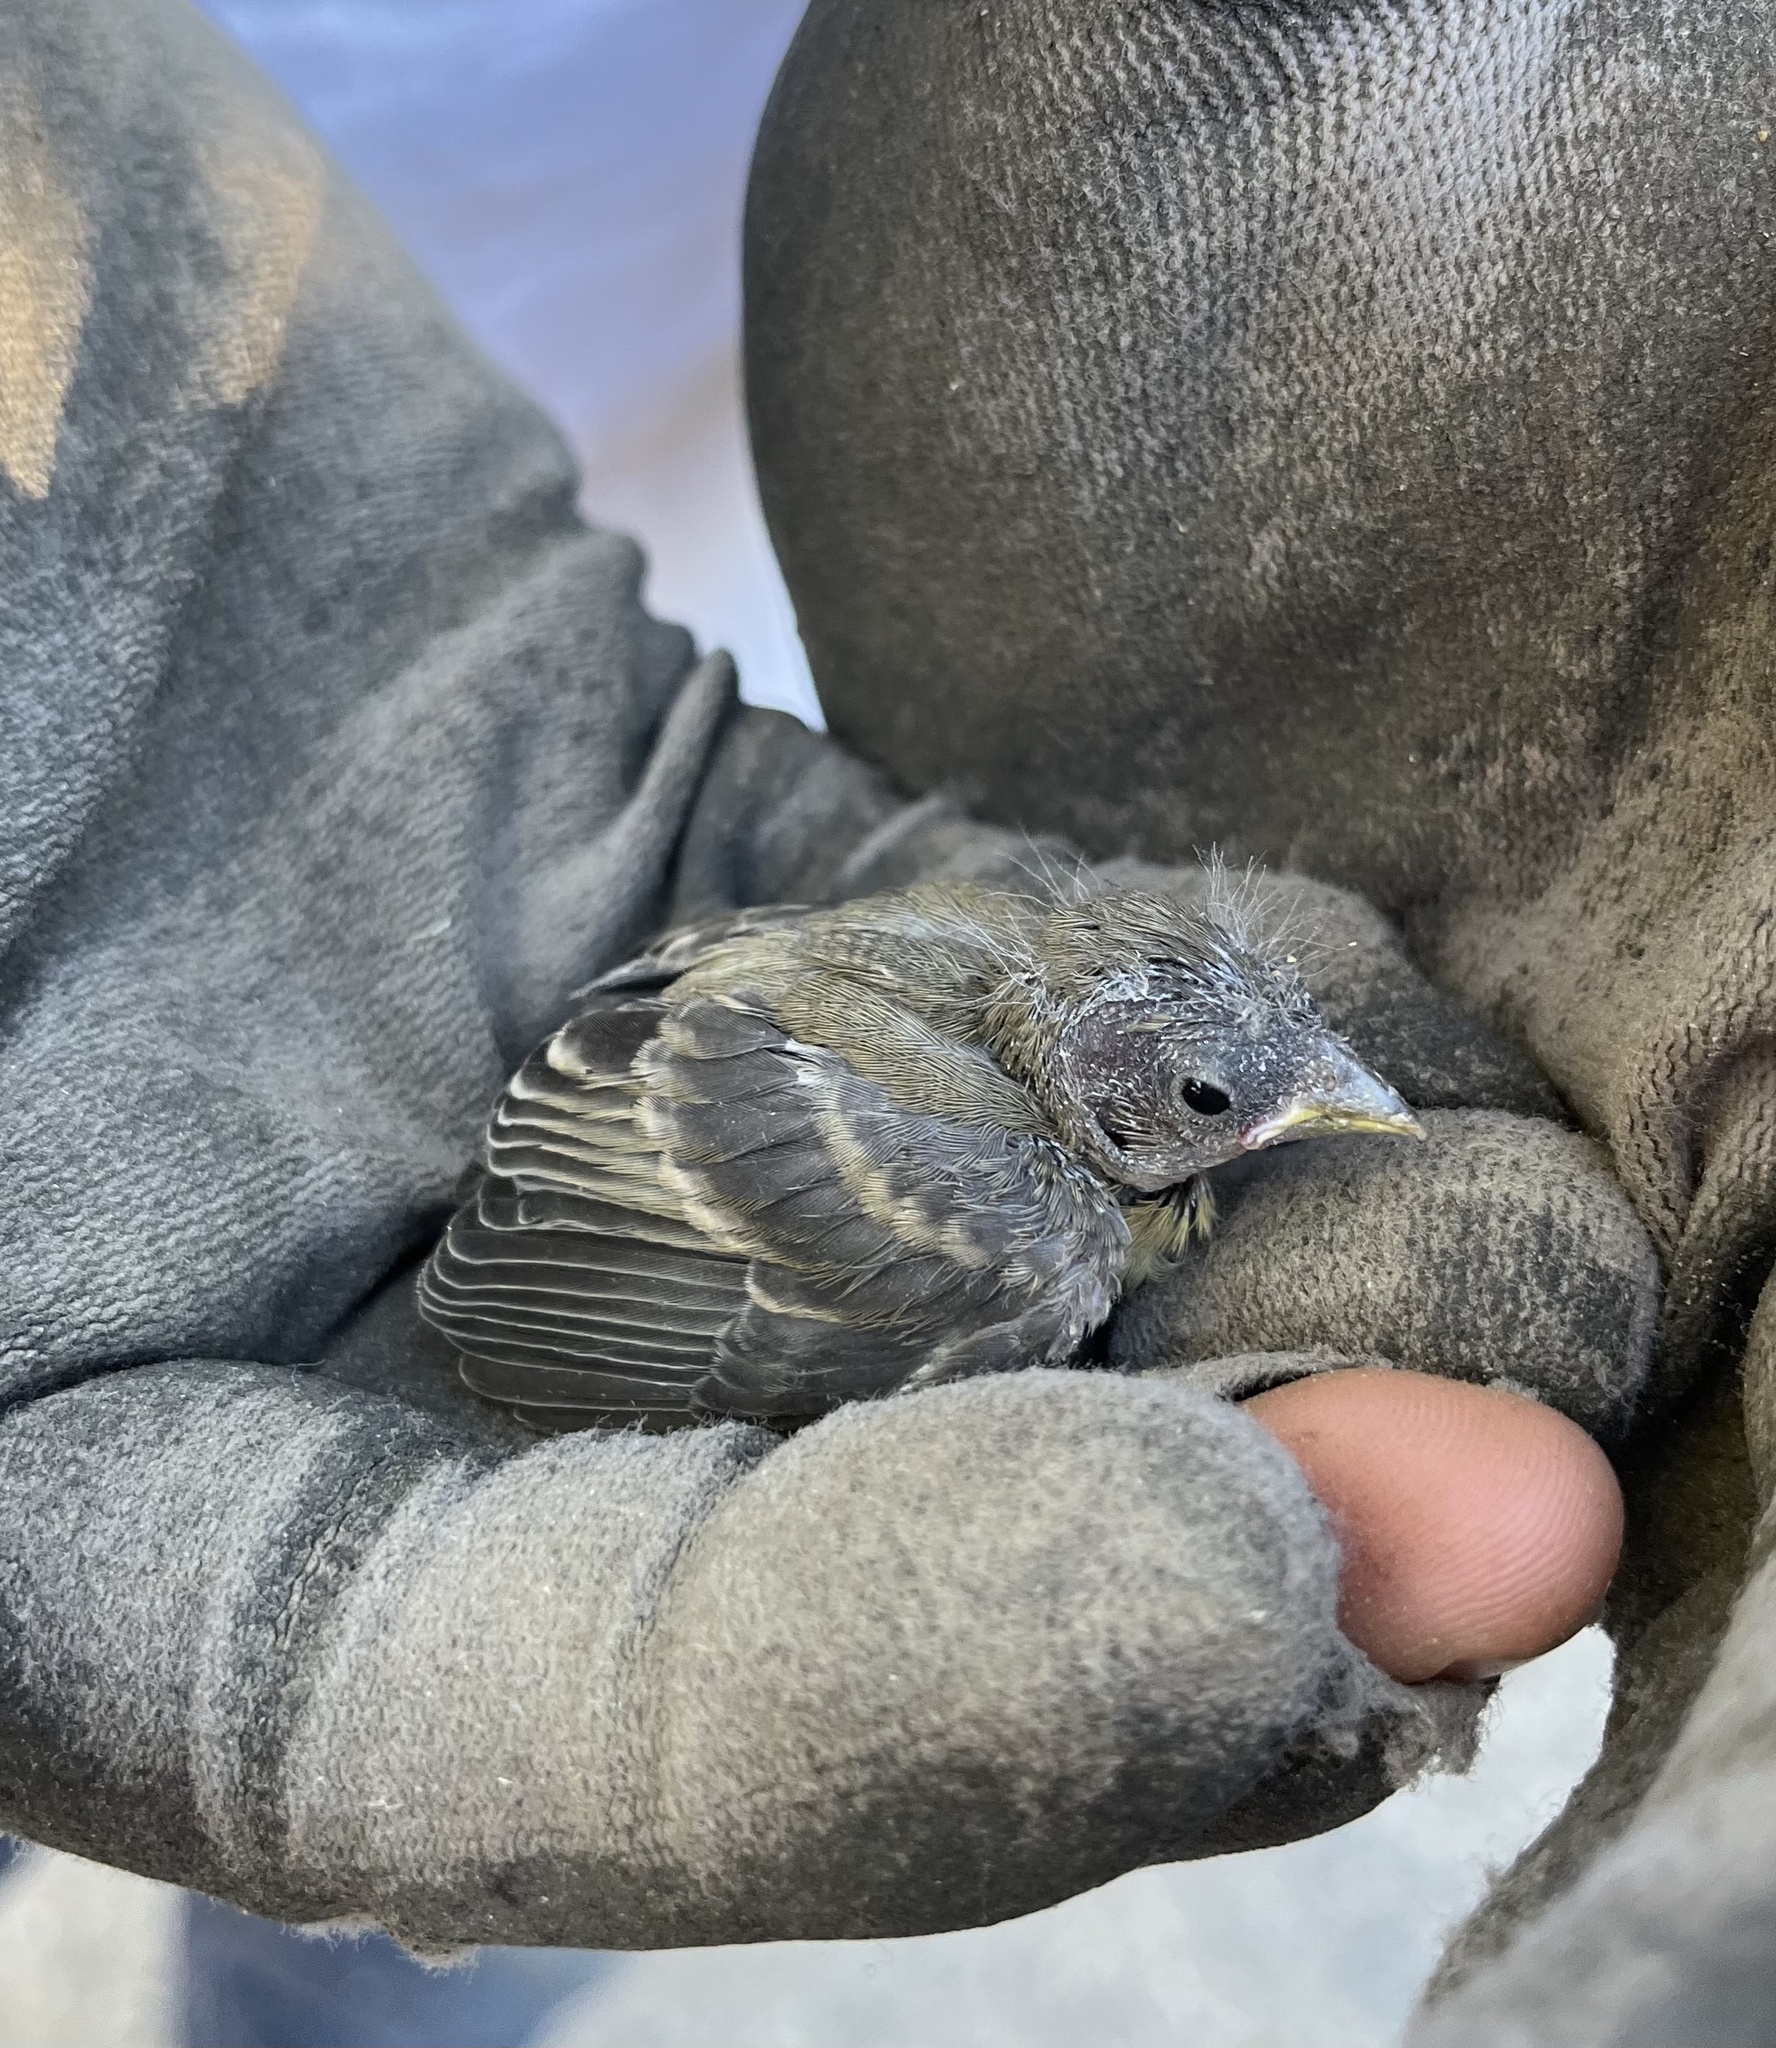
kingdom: Animalia
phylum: Chordata
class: Aves
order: Passeriformes
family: Fringillidae
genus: Spinus
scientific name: Spinus psaltria
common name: Lesser goldfinch
